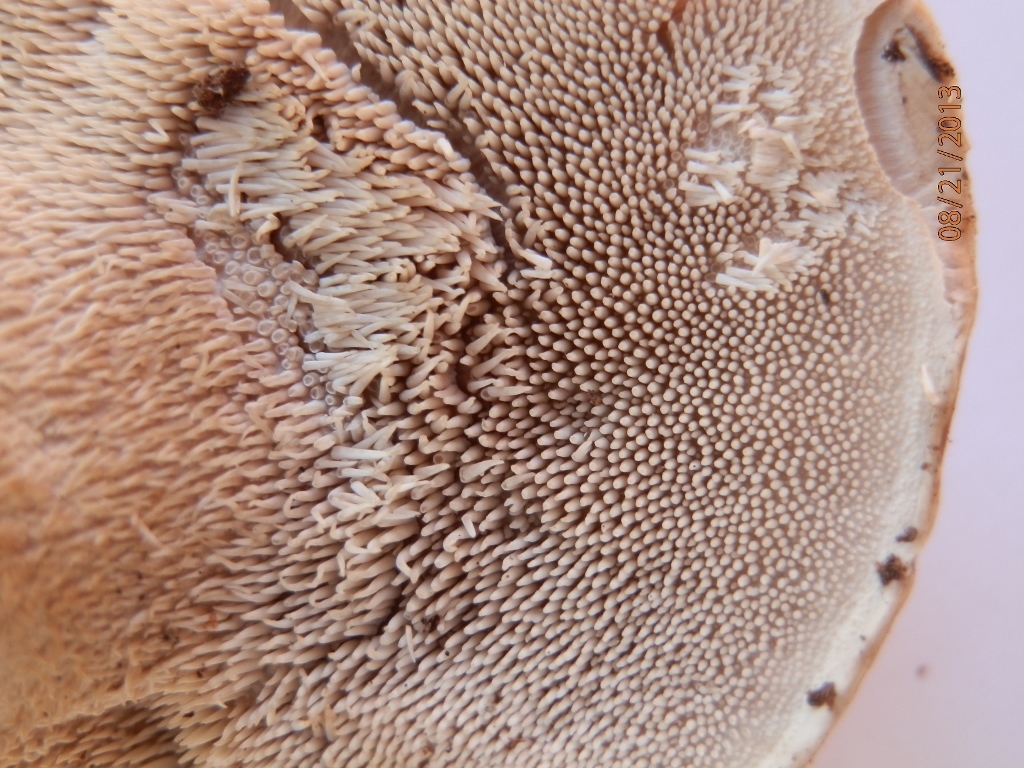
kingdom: Fungi
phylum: Basidiomycota
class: Agaricomycetes
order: Thelephorales
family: Thelephoraceae
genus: Phellodon
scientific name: Phellodon violascens
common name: Spruce tooth
